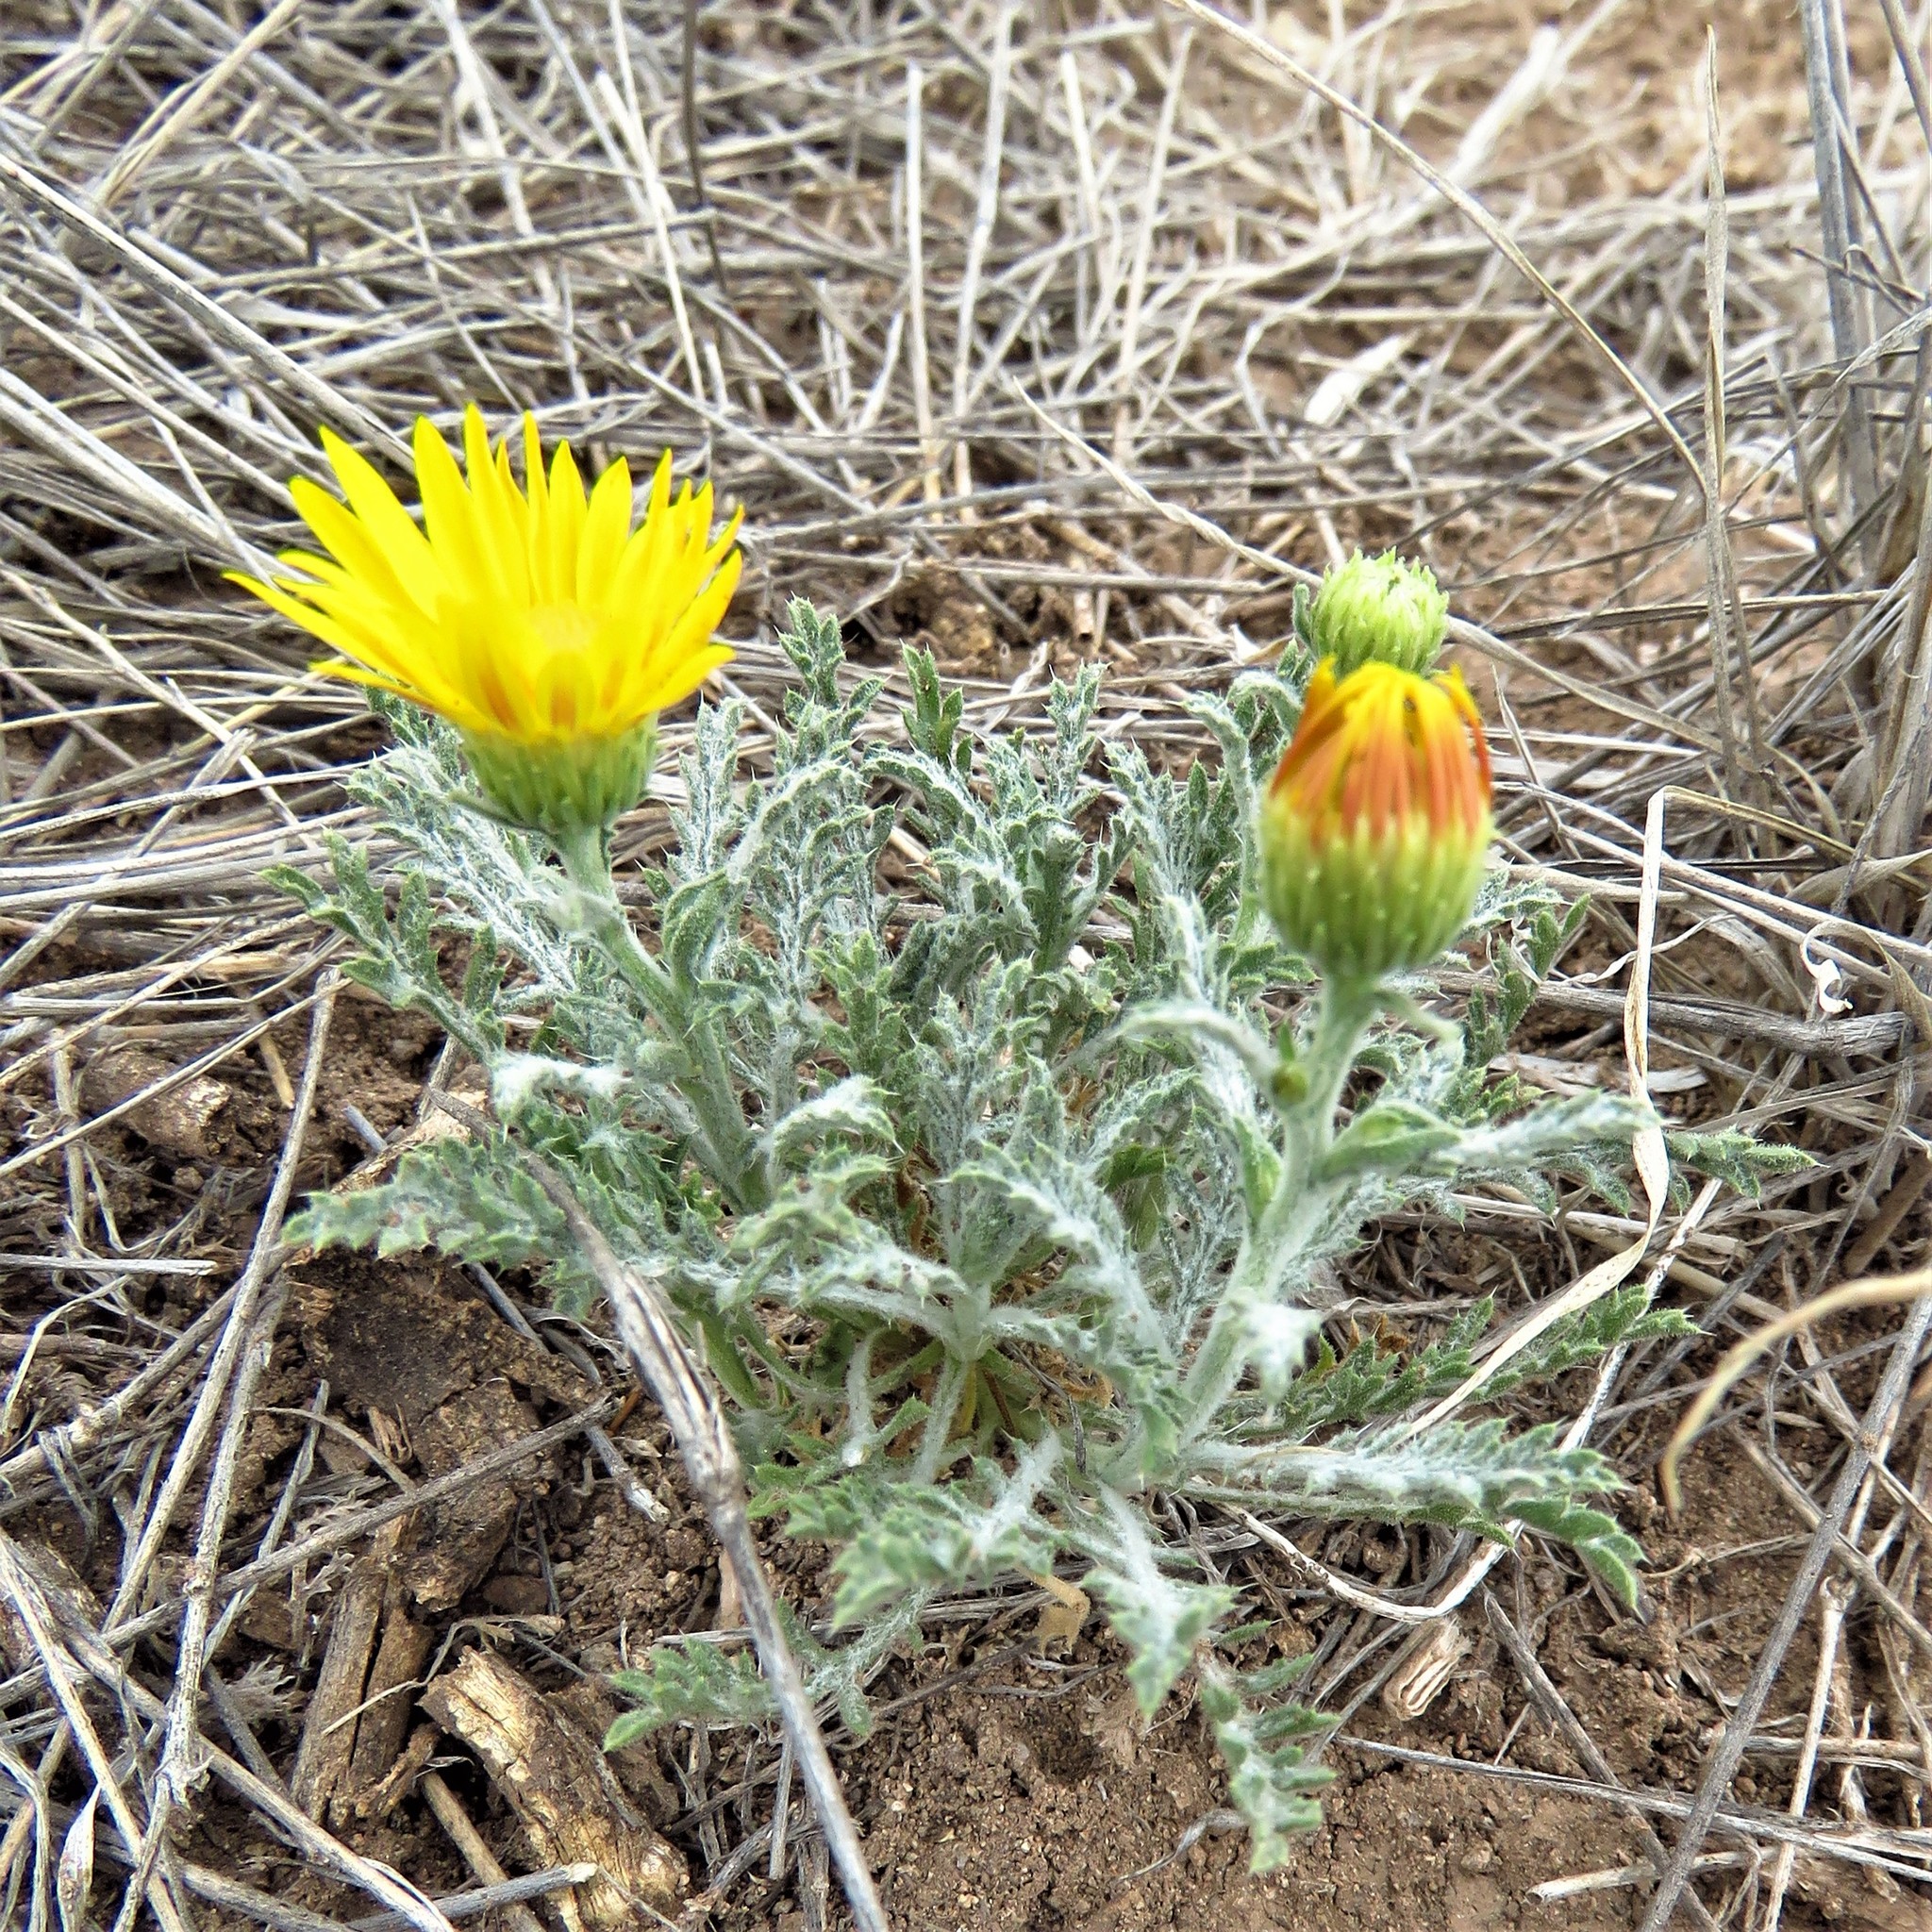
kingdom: Plantae
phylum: Tracheophyta
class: Magnoliopsida
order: Asterales
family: Asteraceae
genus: Xanthisma
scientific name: Xanthisma spinulosum
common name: Spiny goldenweed
